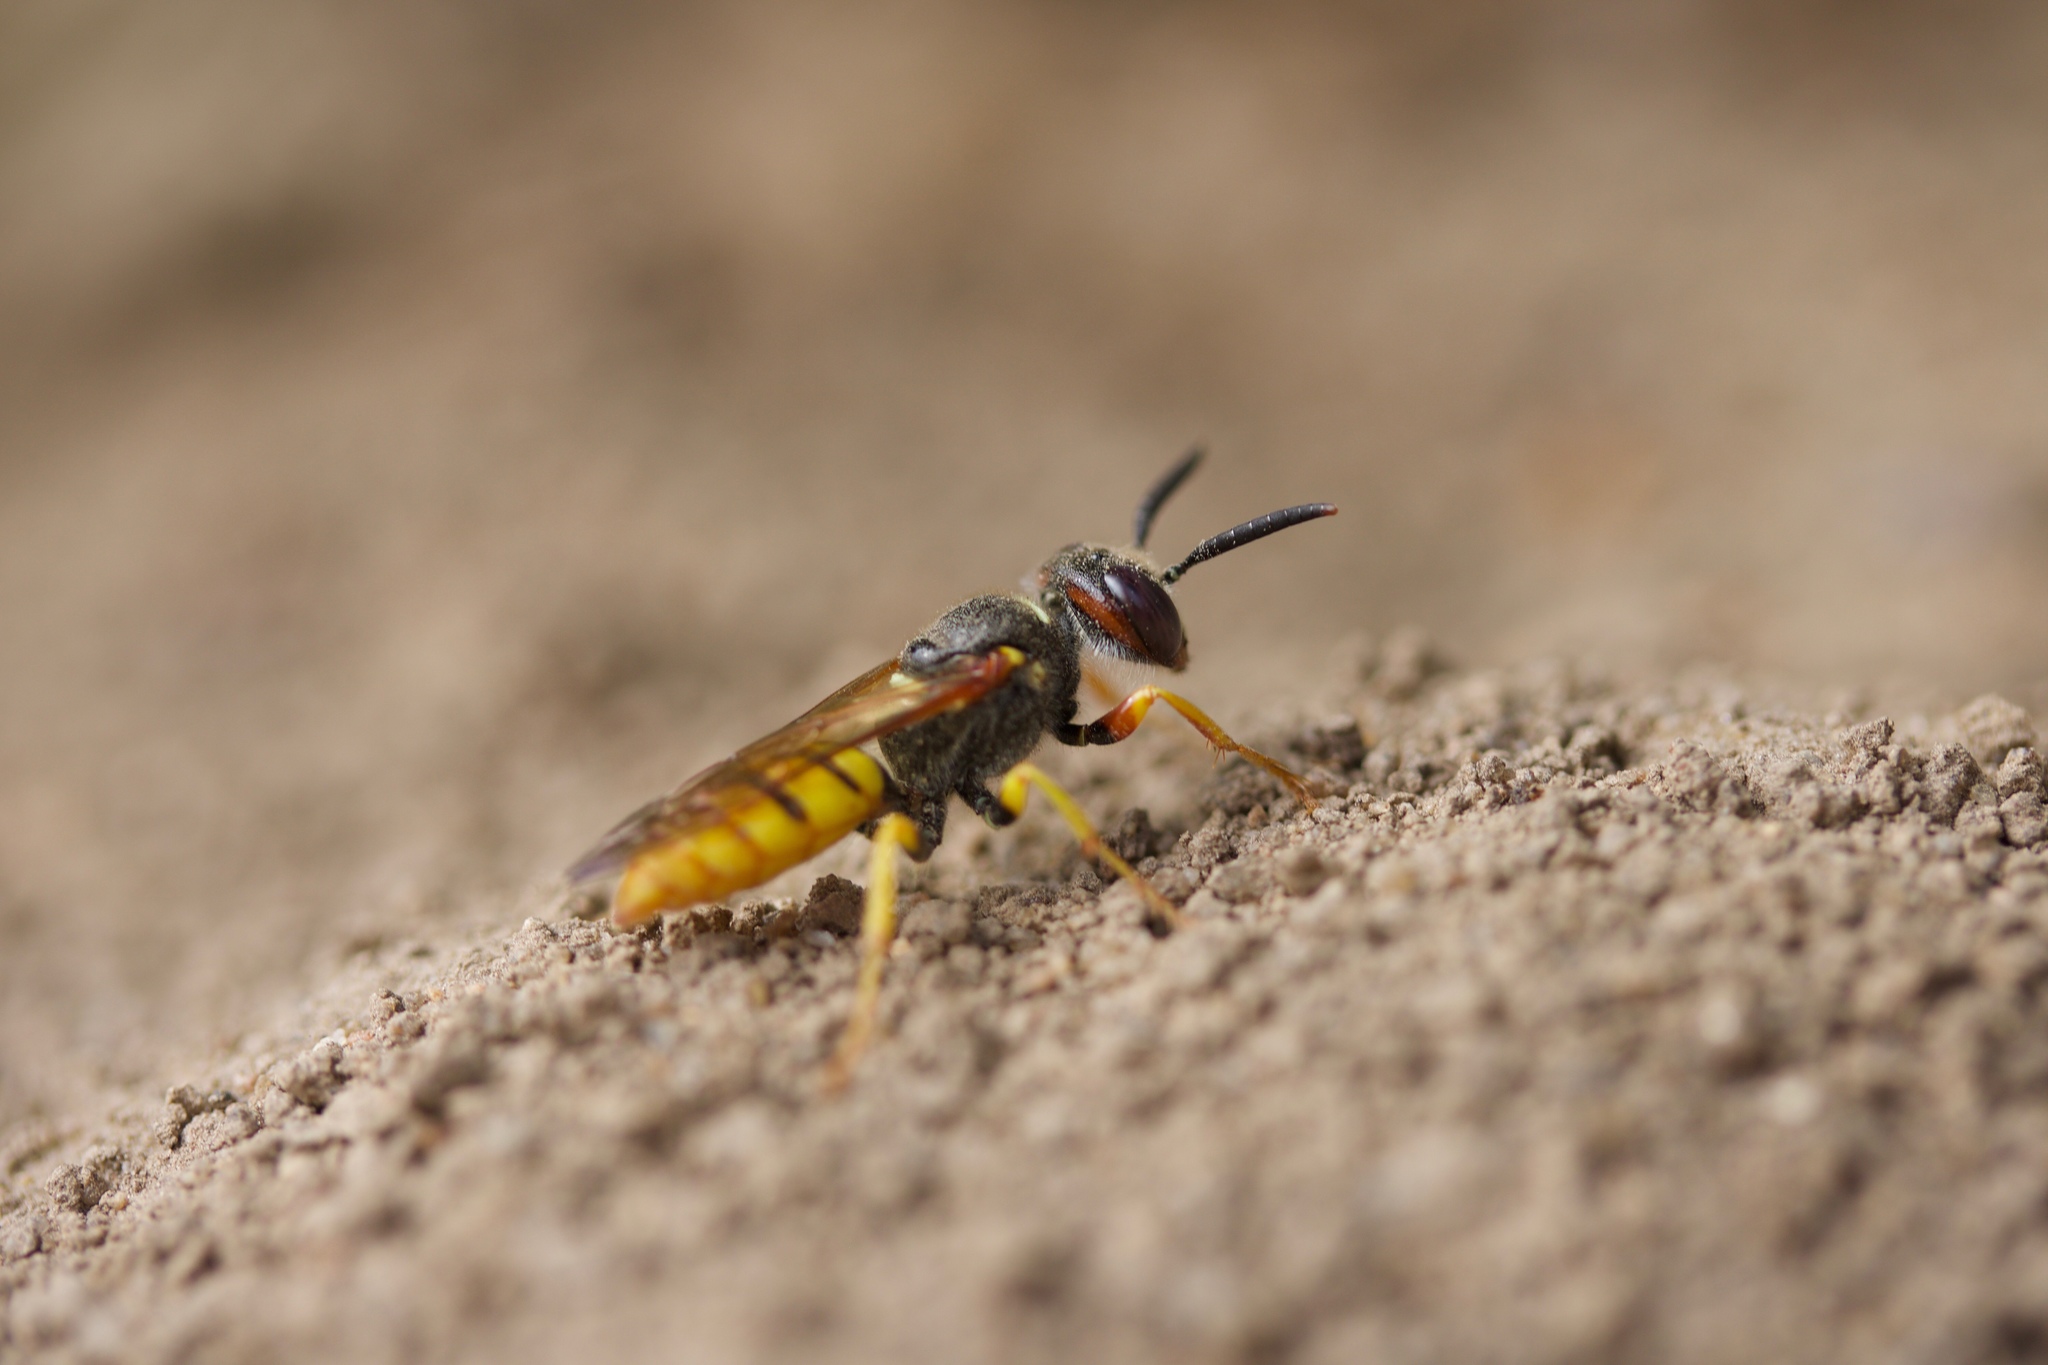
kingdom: Animalia
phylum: Arthropoda
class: Insecta
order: Hymenoptera
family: Crabronidae
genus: Philanthus
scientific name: Philanthus triangulum
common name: Bee wolf
